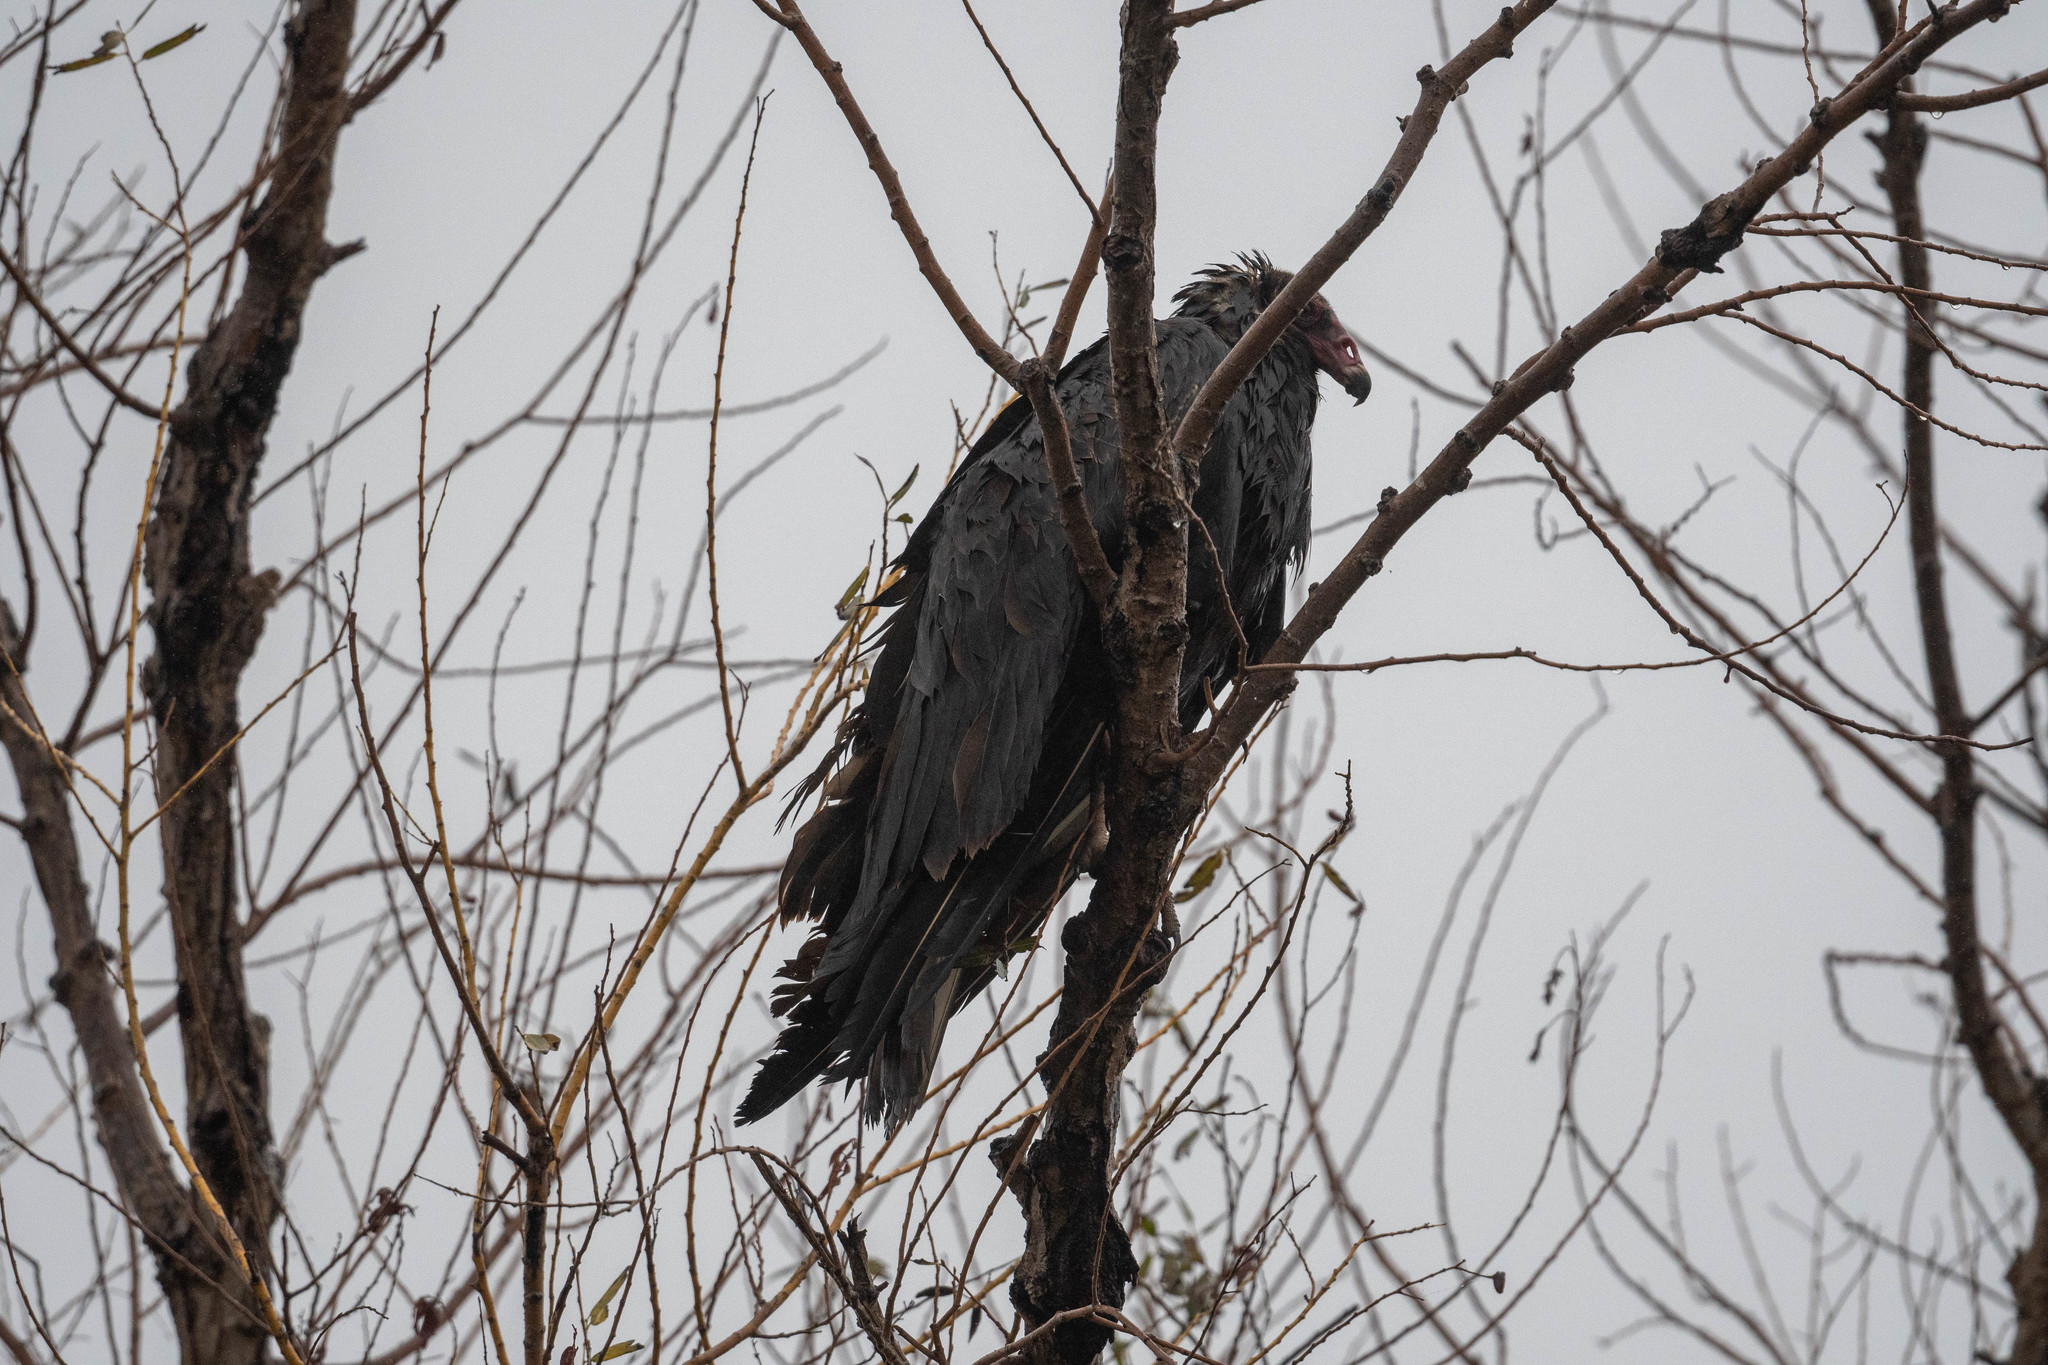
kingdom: Animalia
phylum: Chordata
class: Aves
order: Accipitriformes
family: Cathartidae
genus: Cathartes
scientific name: Cathartes aura
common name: Turkey vulture
